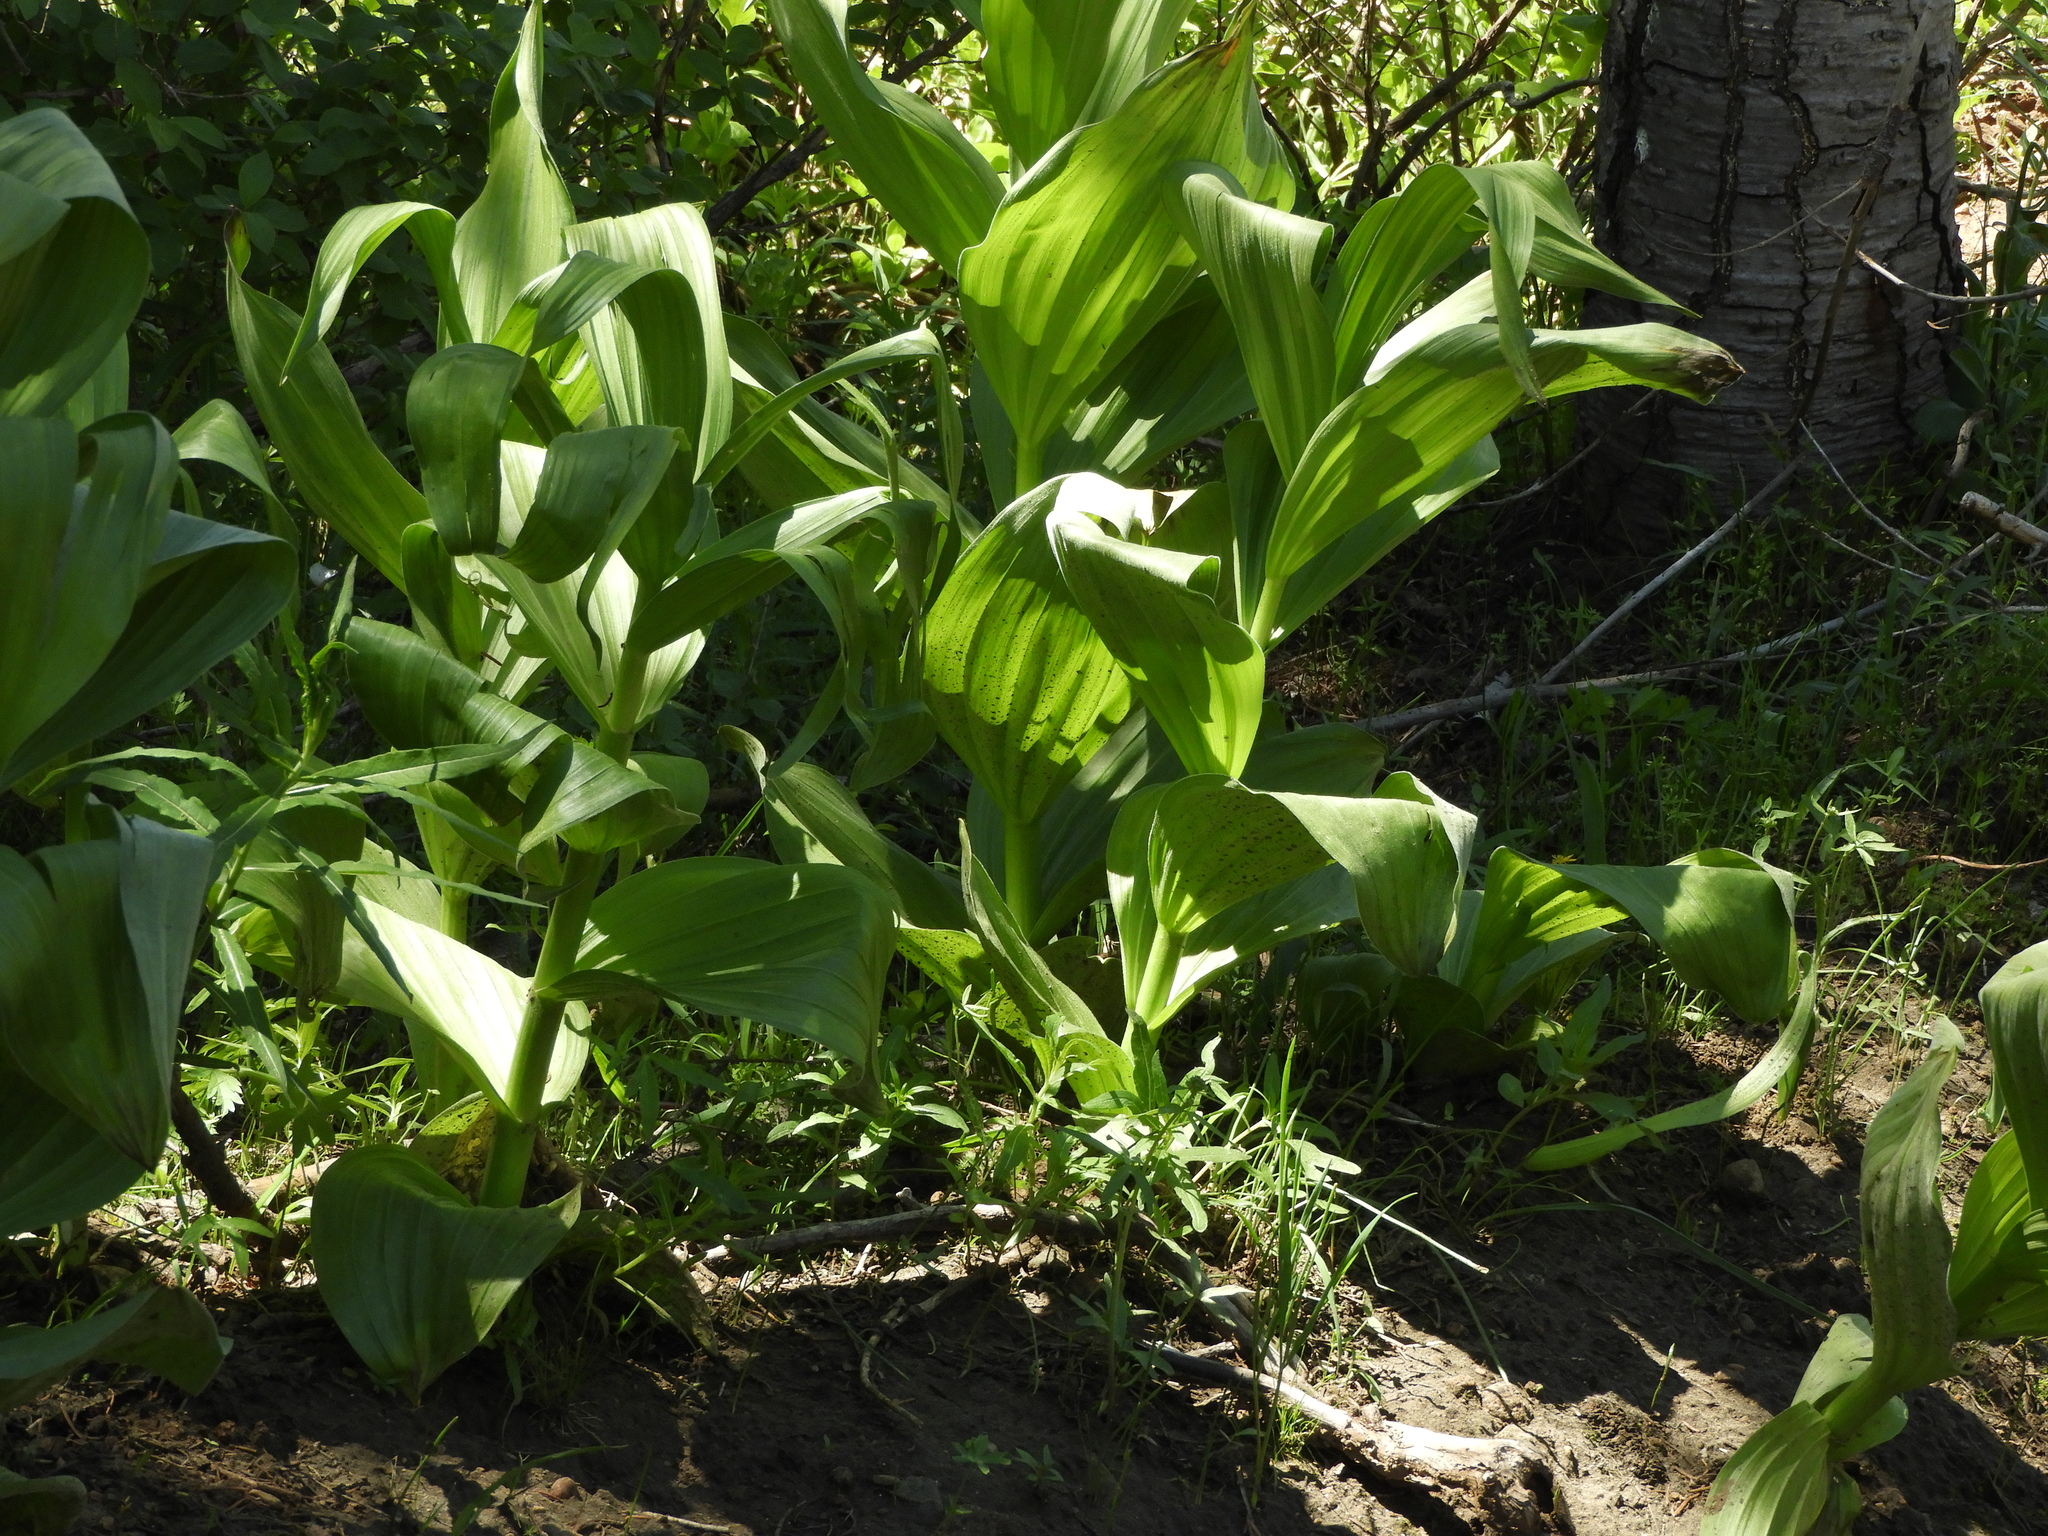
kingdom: Plantae
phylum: Tracheophyta
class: Liliopsida
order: Liliales
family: Melanthiaceae
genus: Veratrum
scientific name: Veratrum californicum
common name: California veratrum
